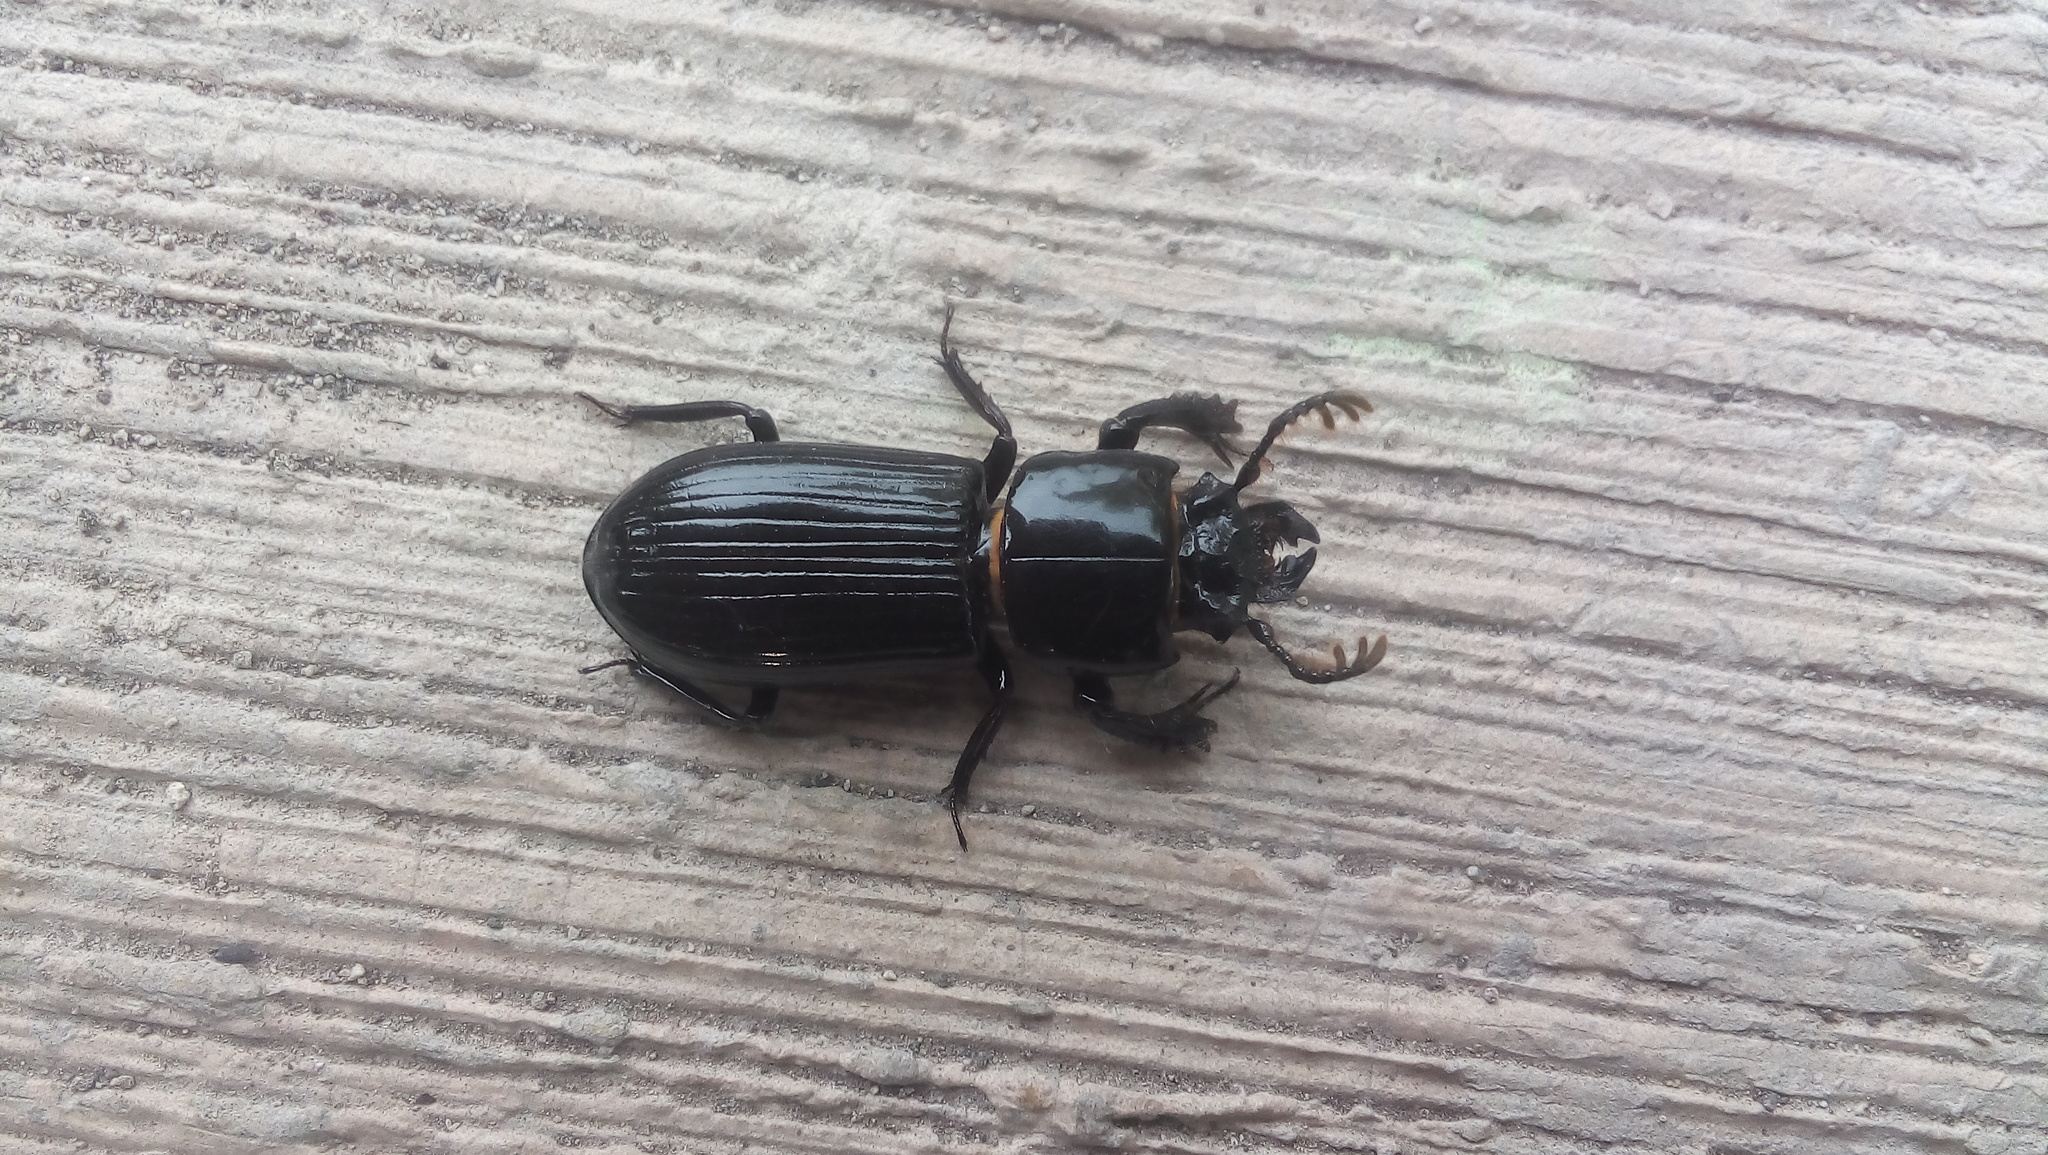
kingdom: Animalia
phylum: Arthropoda
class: Insecta
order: Coleoptera
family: Passalidae
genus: Ptichopus
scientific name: Ptichopus angulatus
